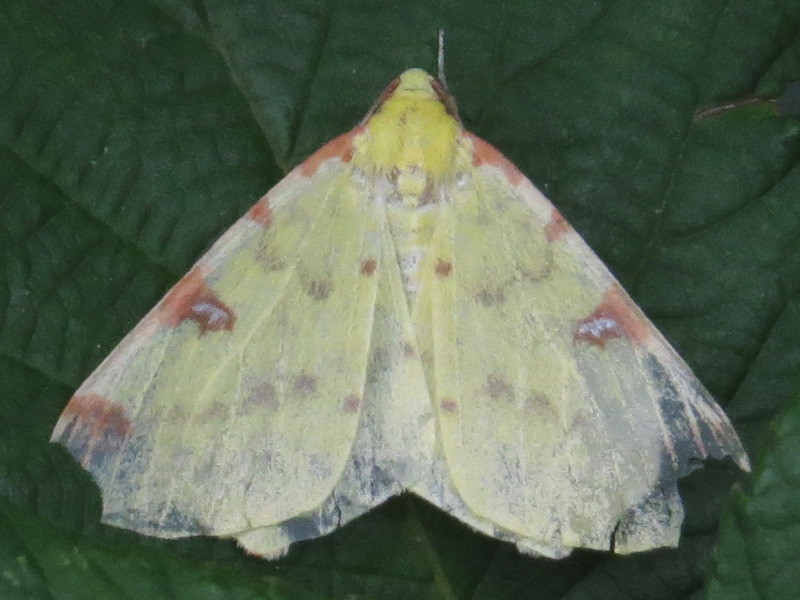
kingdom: Animalia
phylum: Arthropoda
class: Insecta
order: Lepidoptera
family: Geometridae
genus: Opisthograptis
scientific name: Opisthograptis luteolata
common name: Brimstone moth
